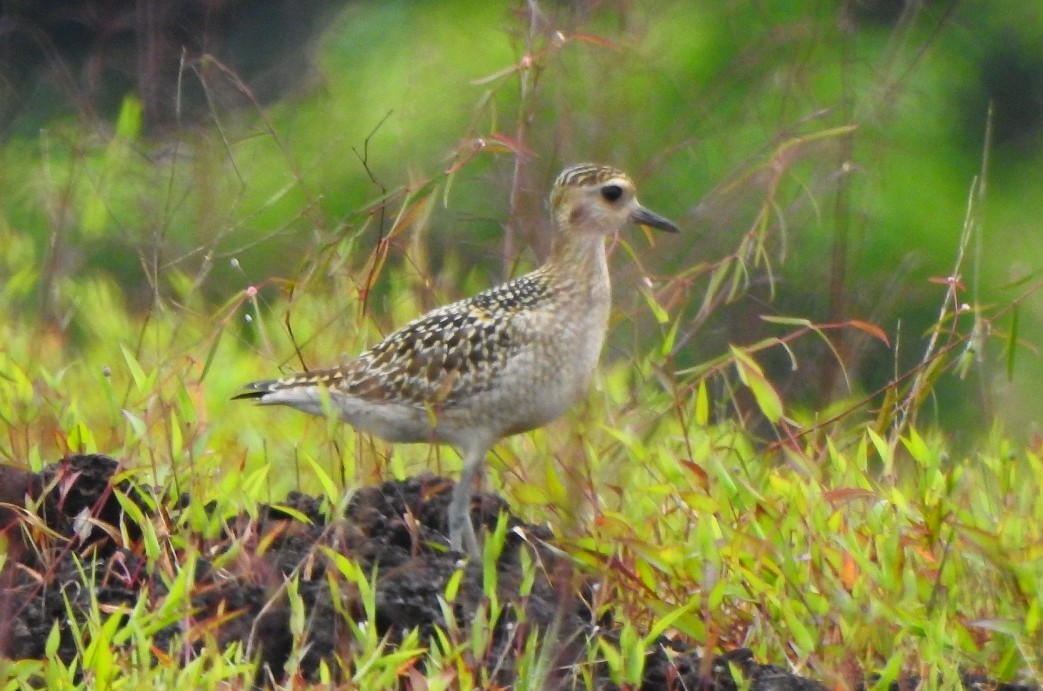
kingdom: Animalia
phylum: Chordata
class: Aves
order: Charadriiformes
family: Charadriidae
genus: Pluvialis
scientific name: Pluvialis fulva
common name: Pacific golden plover
